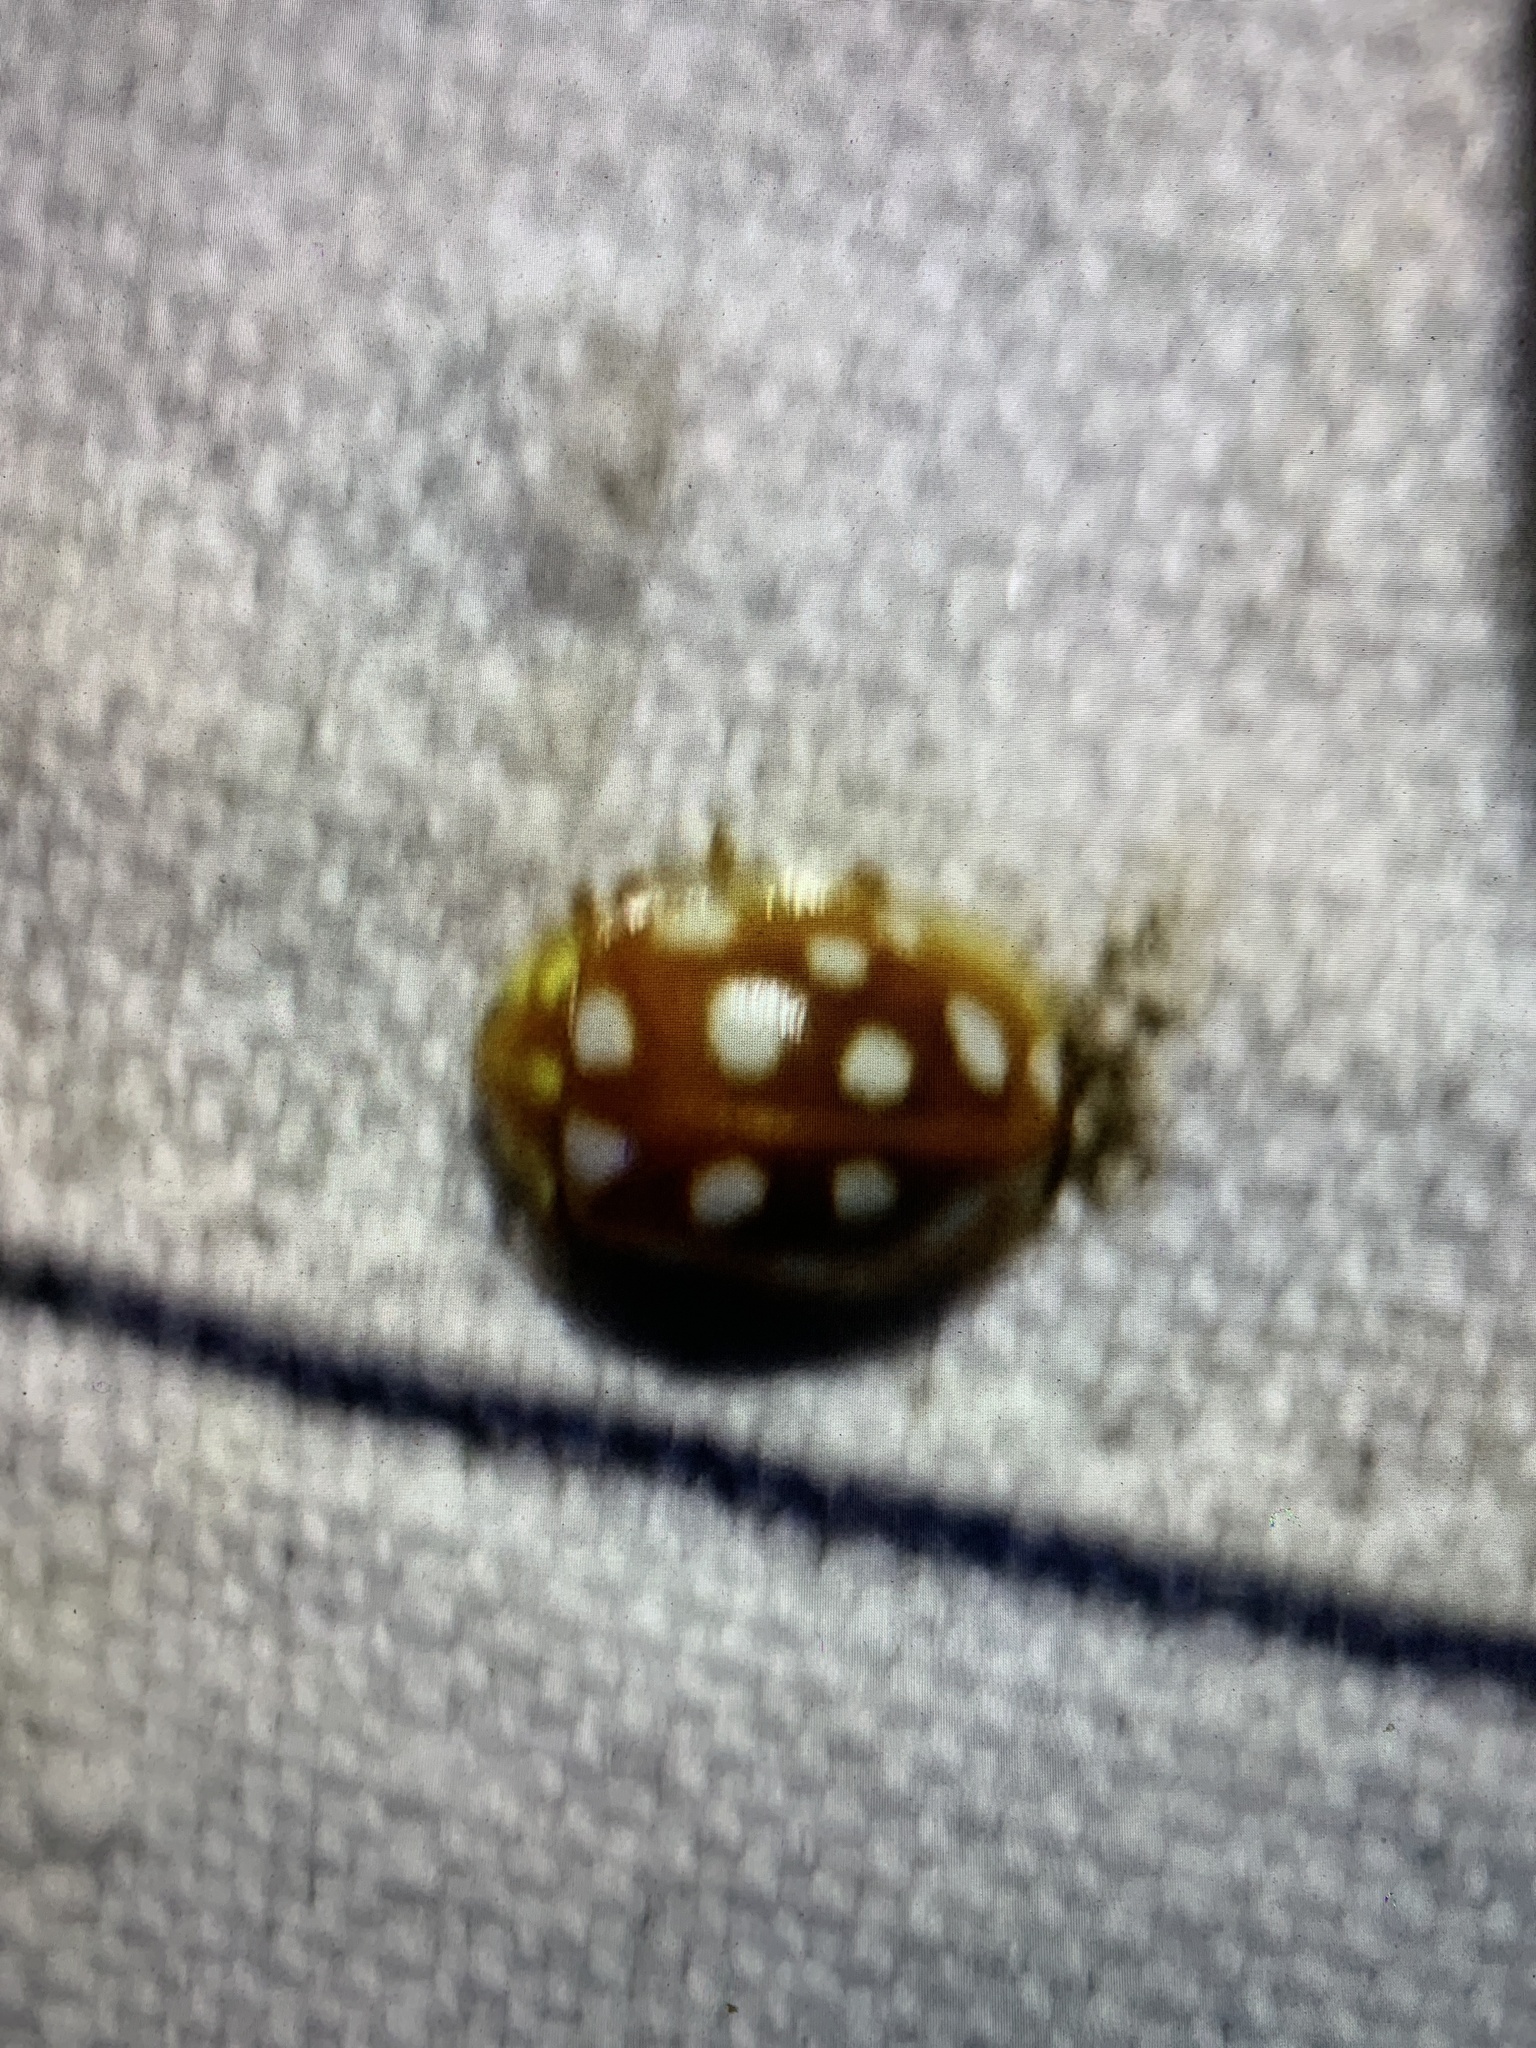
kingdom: Animalia
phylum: Arthropoda
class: Insecta
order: Coleoptera
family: Coccinellidae
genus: Halyzia
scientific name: Halyzia sedecimguttata
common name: Orange ladybird
